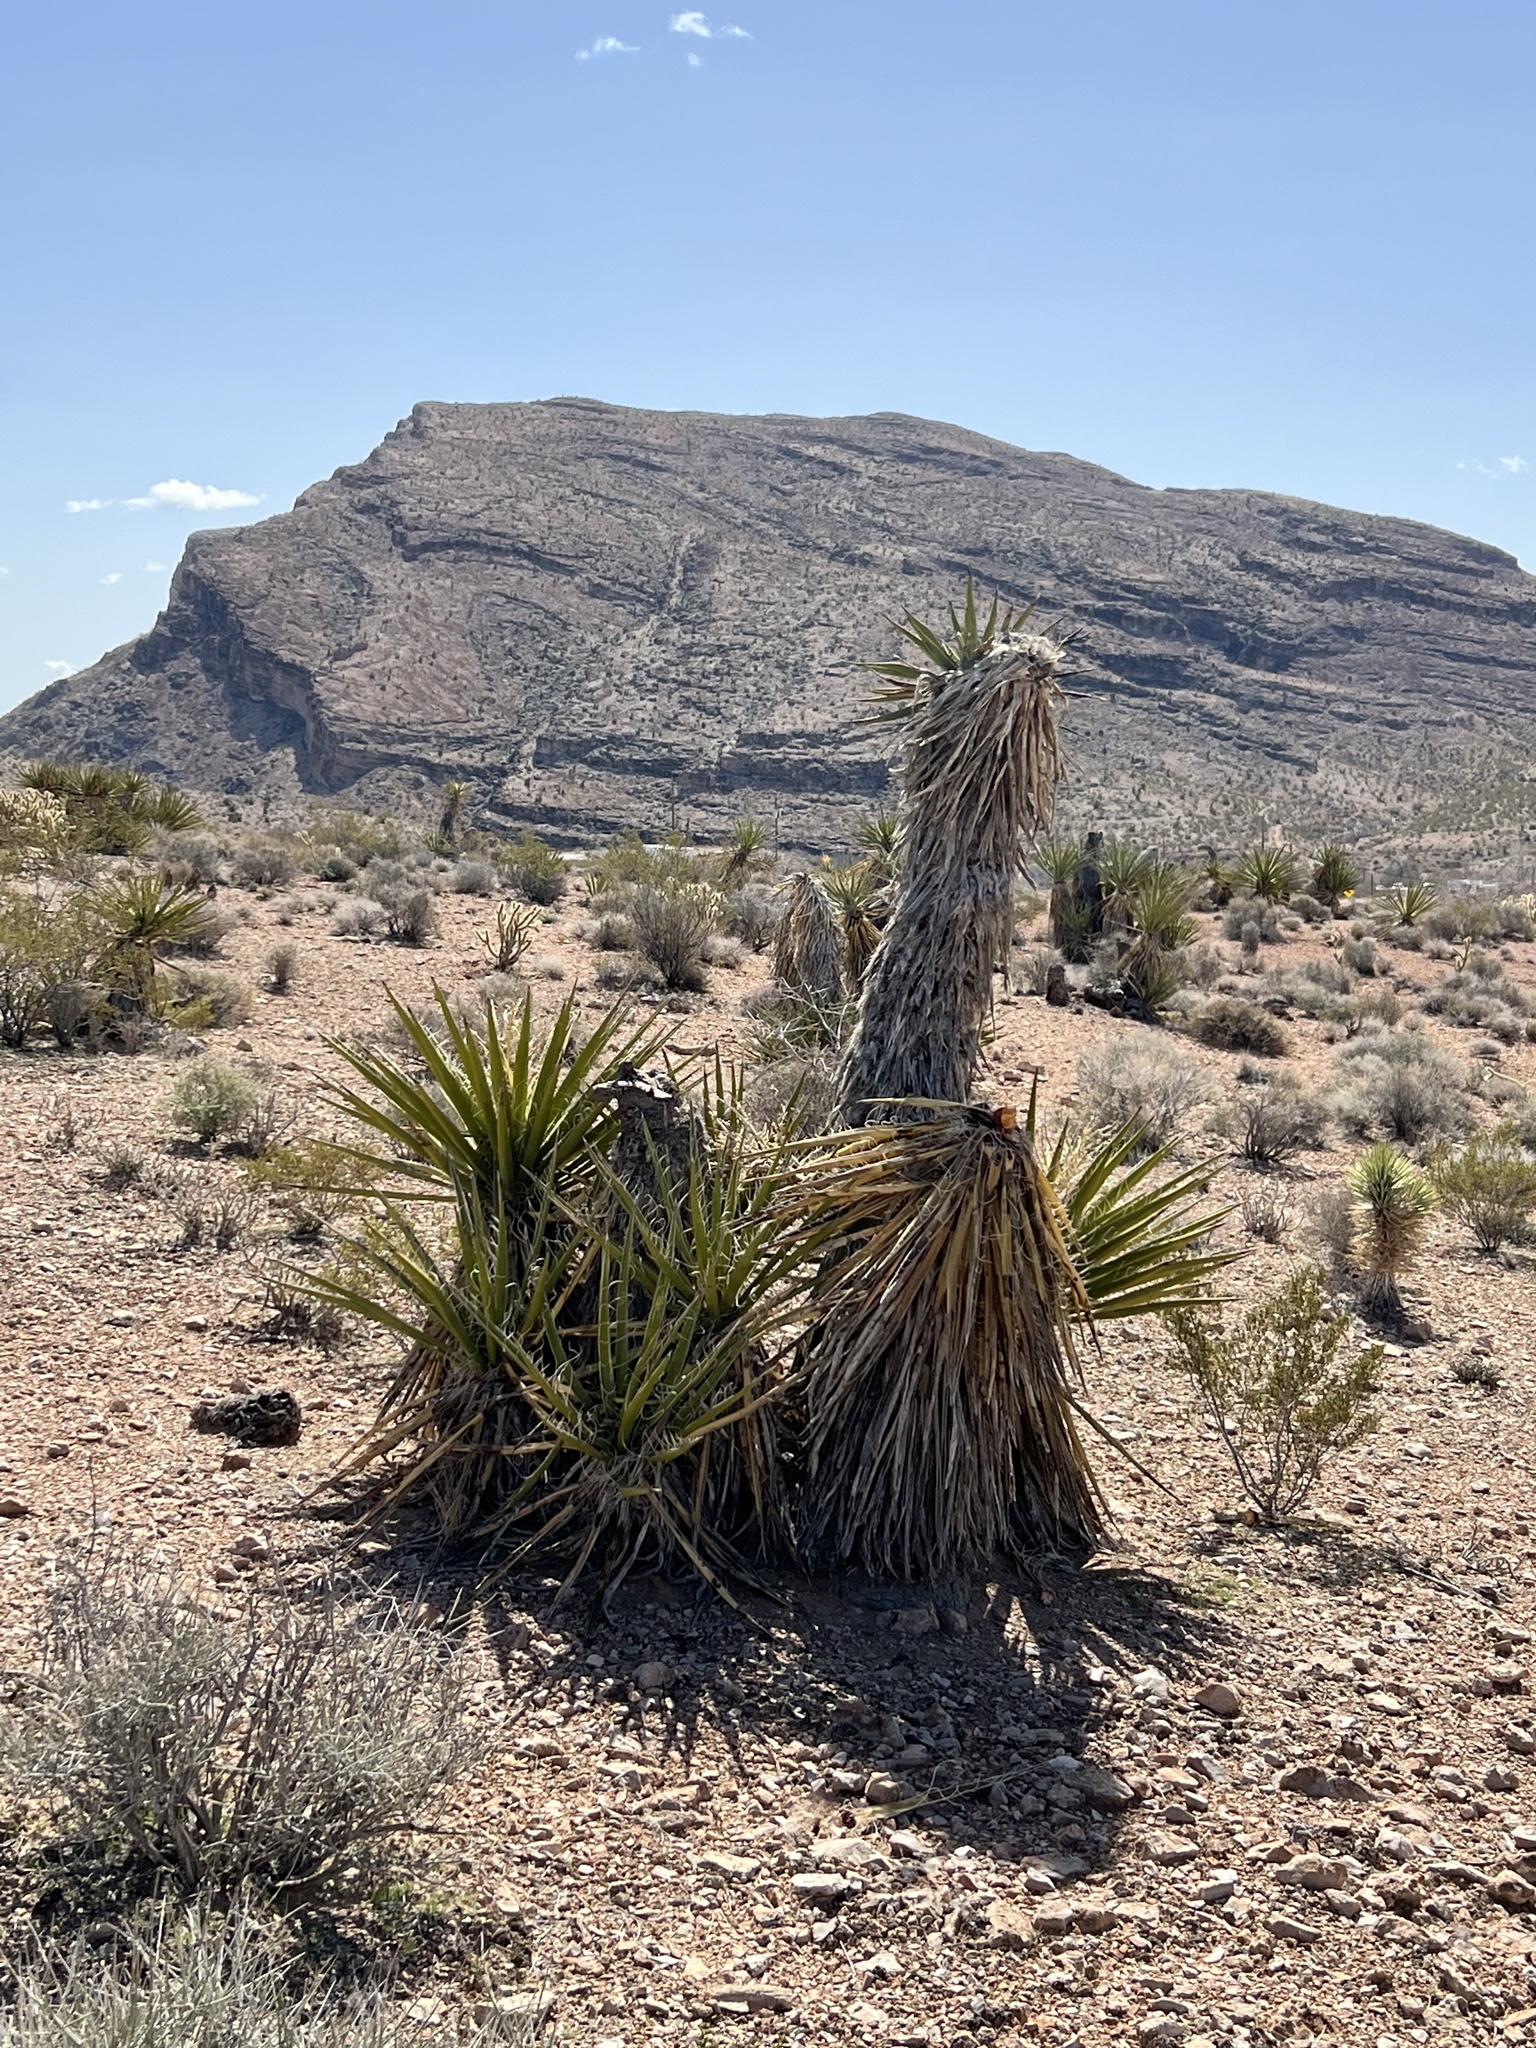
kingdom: Plantae
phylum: Tracheophyta
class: Liliopsida
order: Asparagales
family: Asparagaceae
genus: Yucca
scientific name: Yucca schidigera
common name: Mojave yucca
